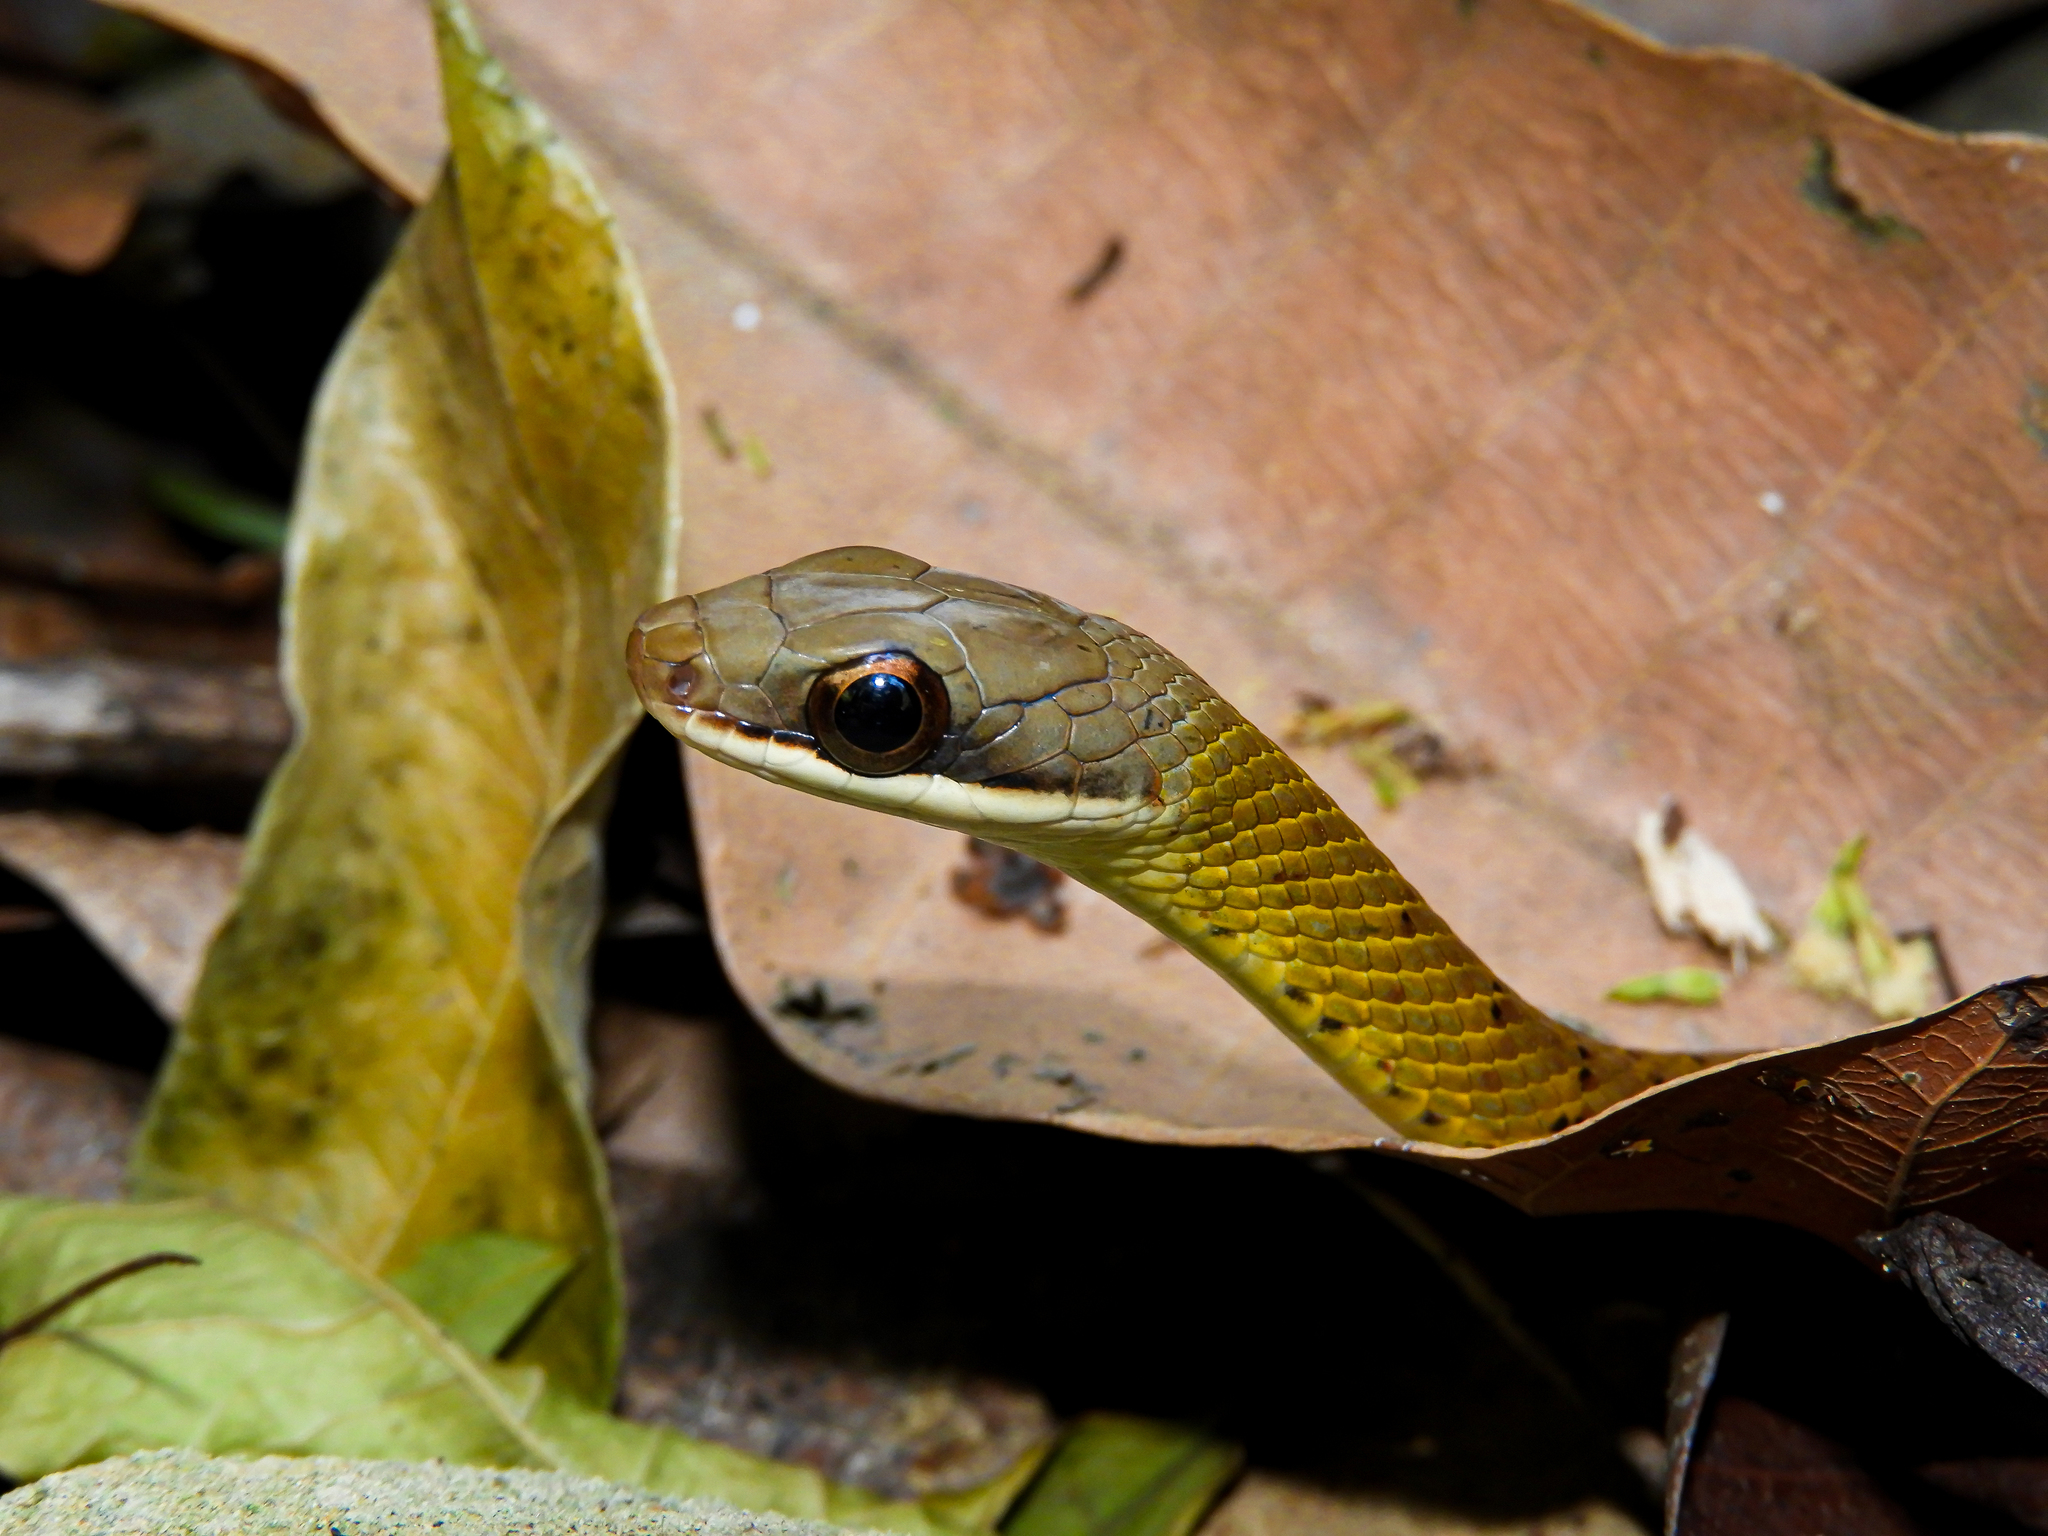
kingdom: Animalia
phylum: Chordata
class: Squamata
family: Colubridae
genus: Dendrophidion
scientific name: Dendrophidion percarinatum
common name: South american forest racer
